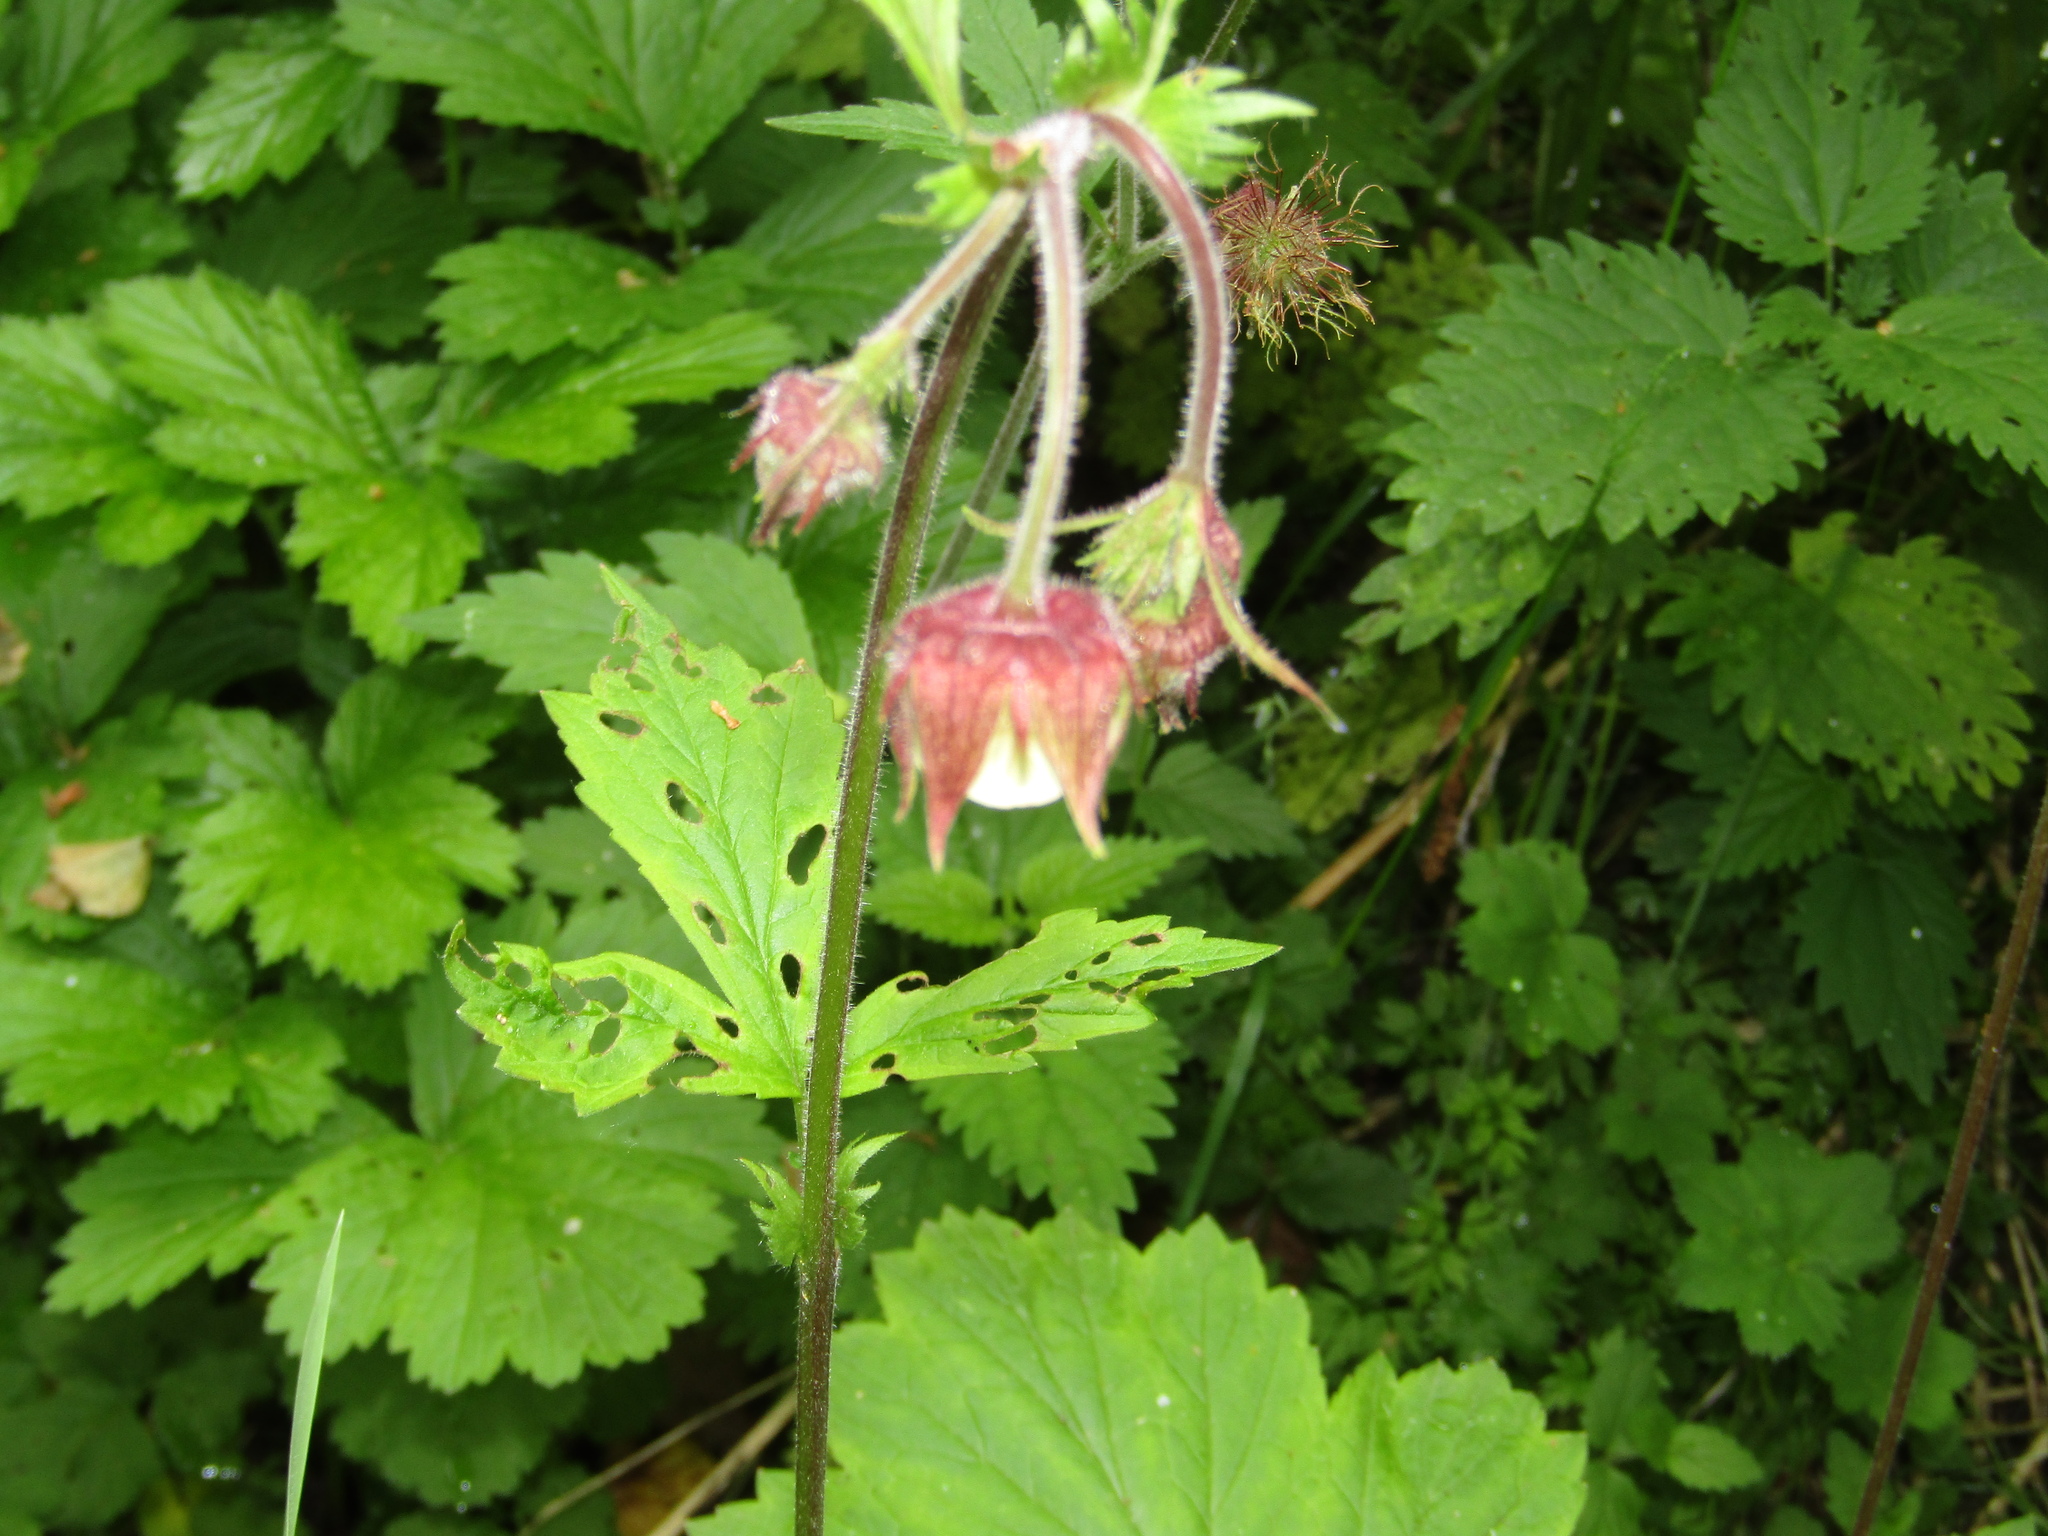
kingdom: Plantae
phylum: Tracheophyta
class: Magnoliopsida
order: Rosales
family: Rosaceae
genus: Geum
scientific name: Geum rivale
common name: Water avens
